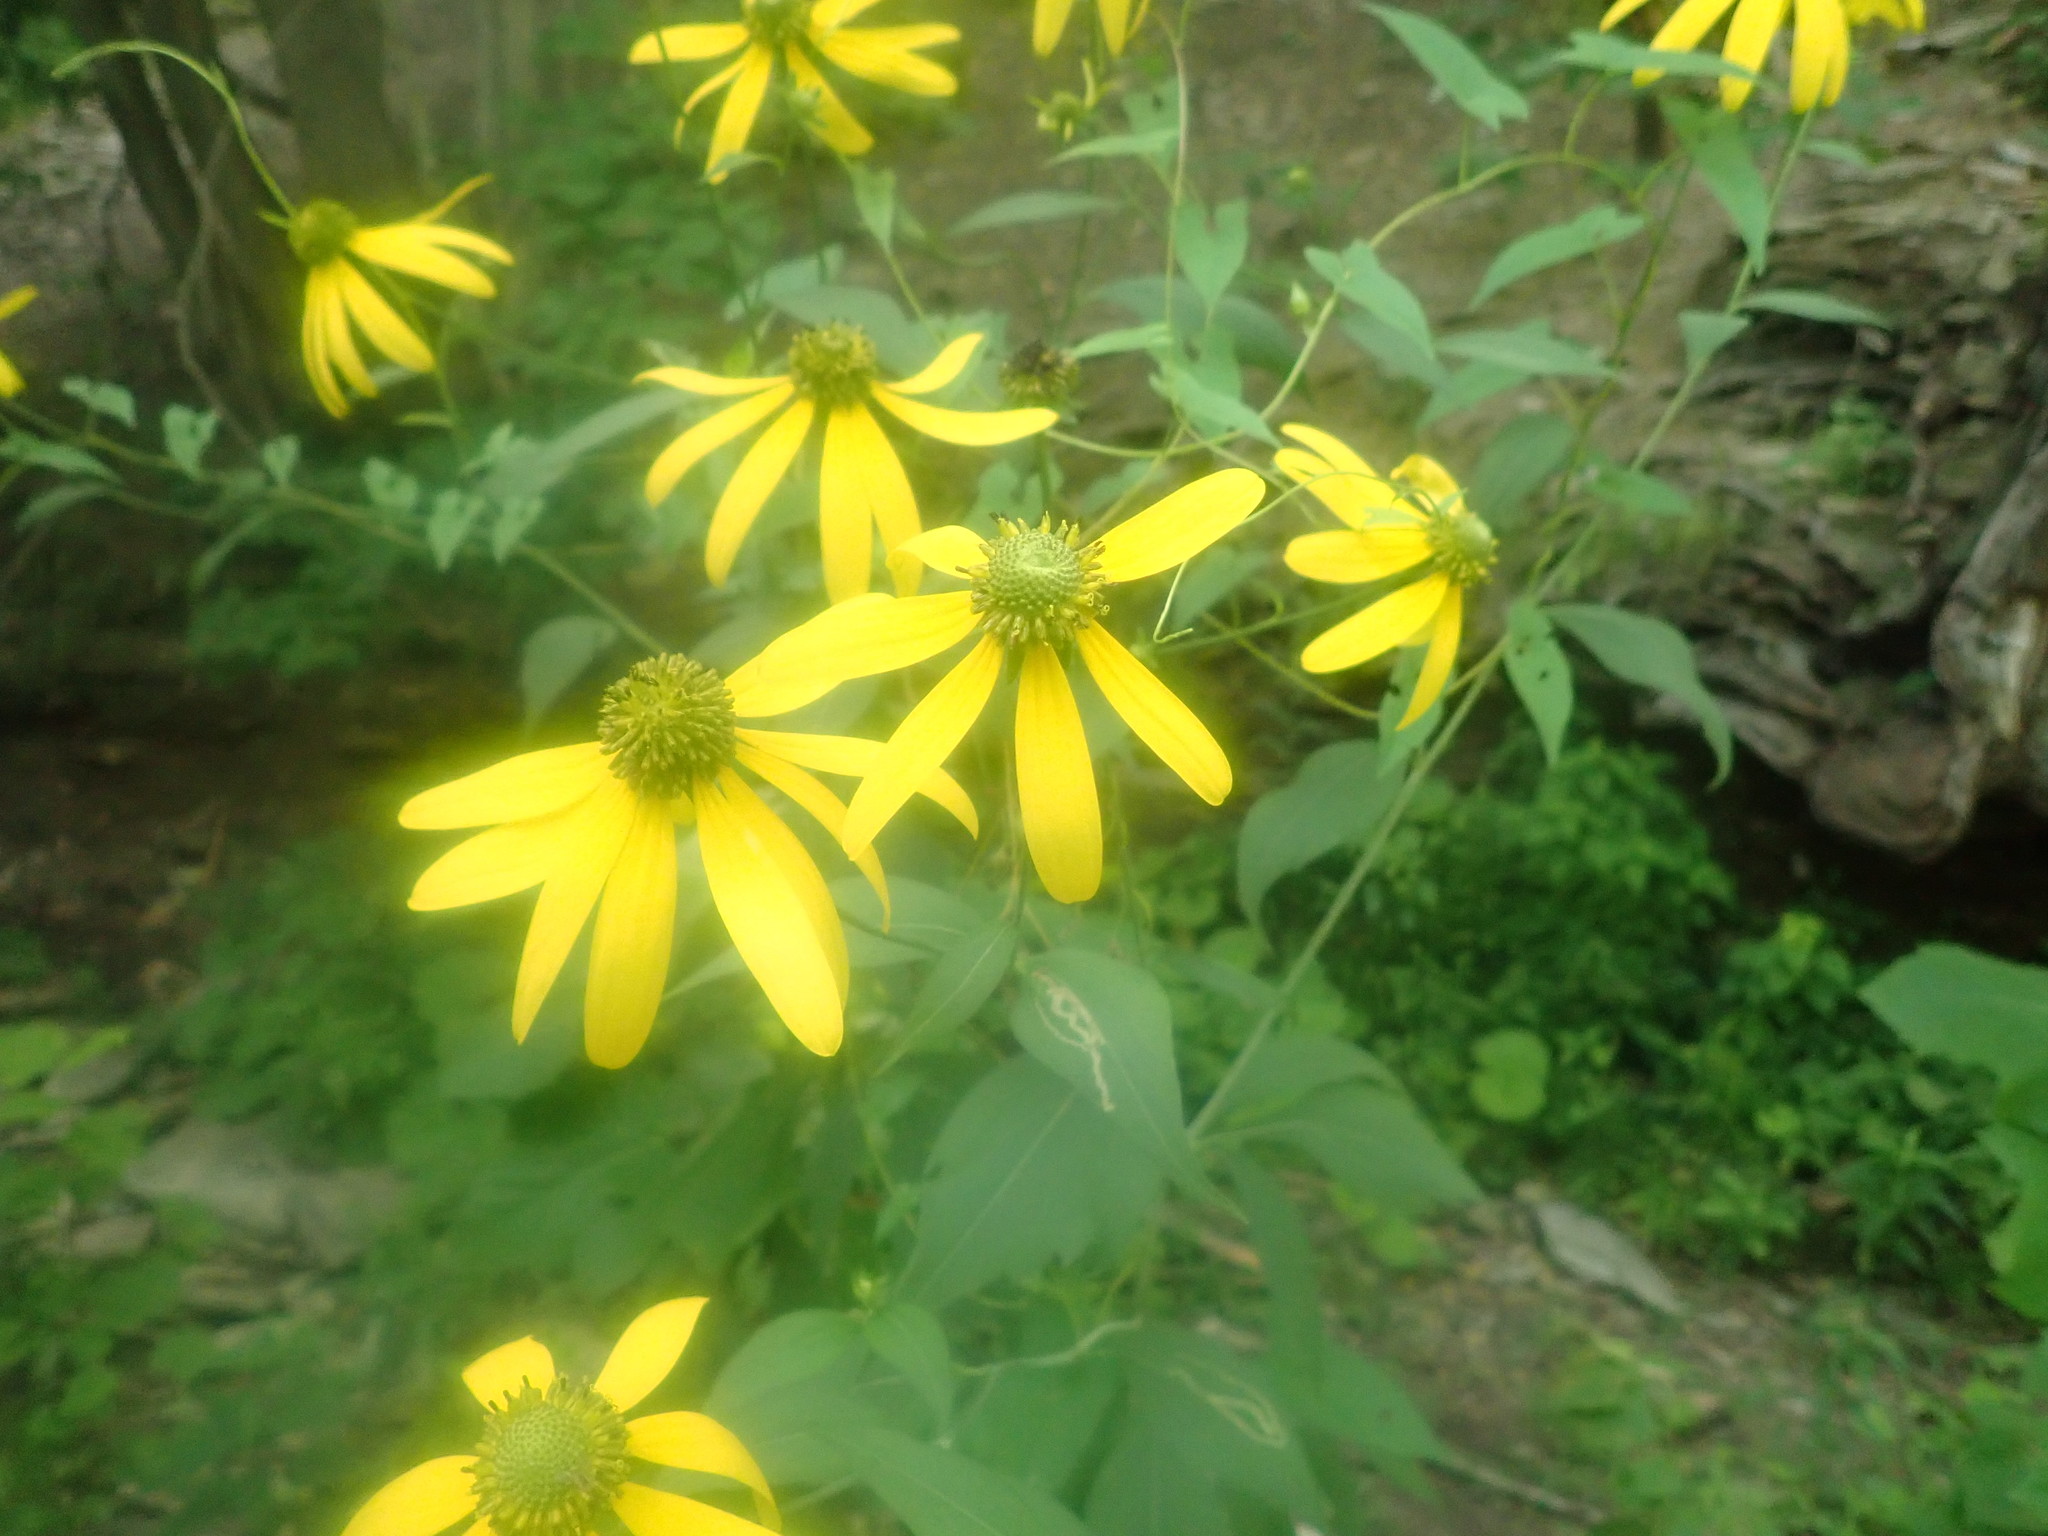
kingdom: Plantae
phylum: Tracheophyta
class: Magnoliopsida
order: Asterales
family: Asteraceae
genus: Rudbeckia
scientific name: Rudbeckia laciniata
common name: Coneflower
